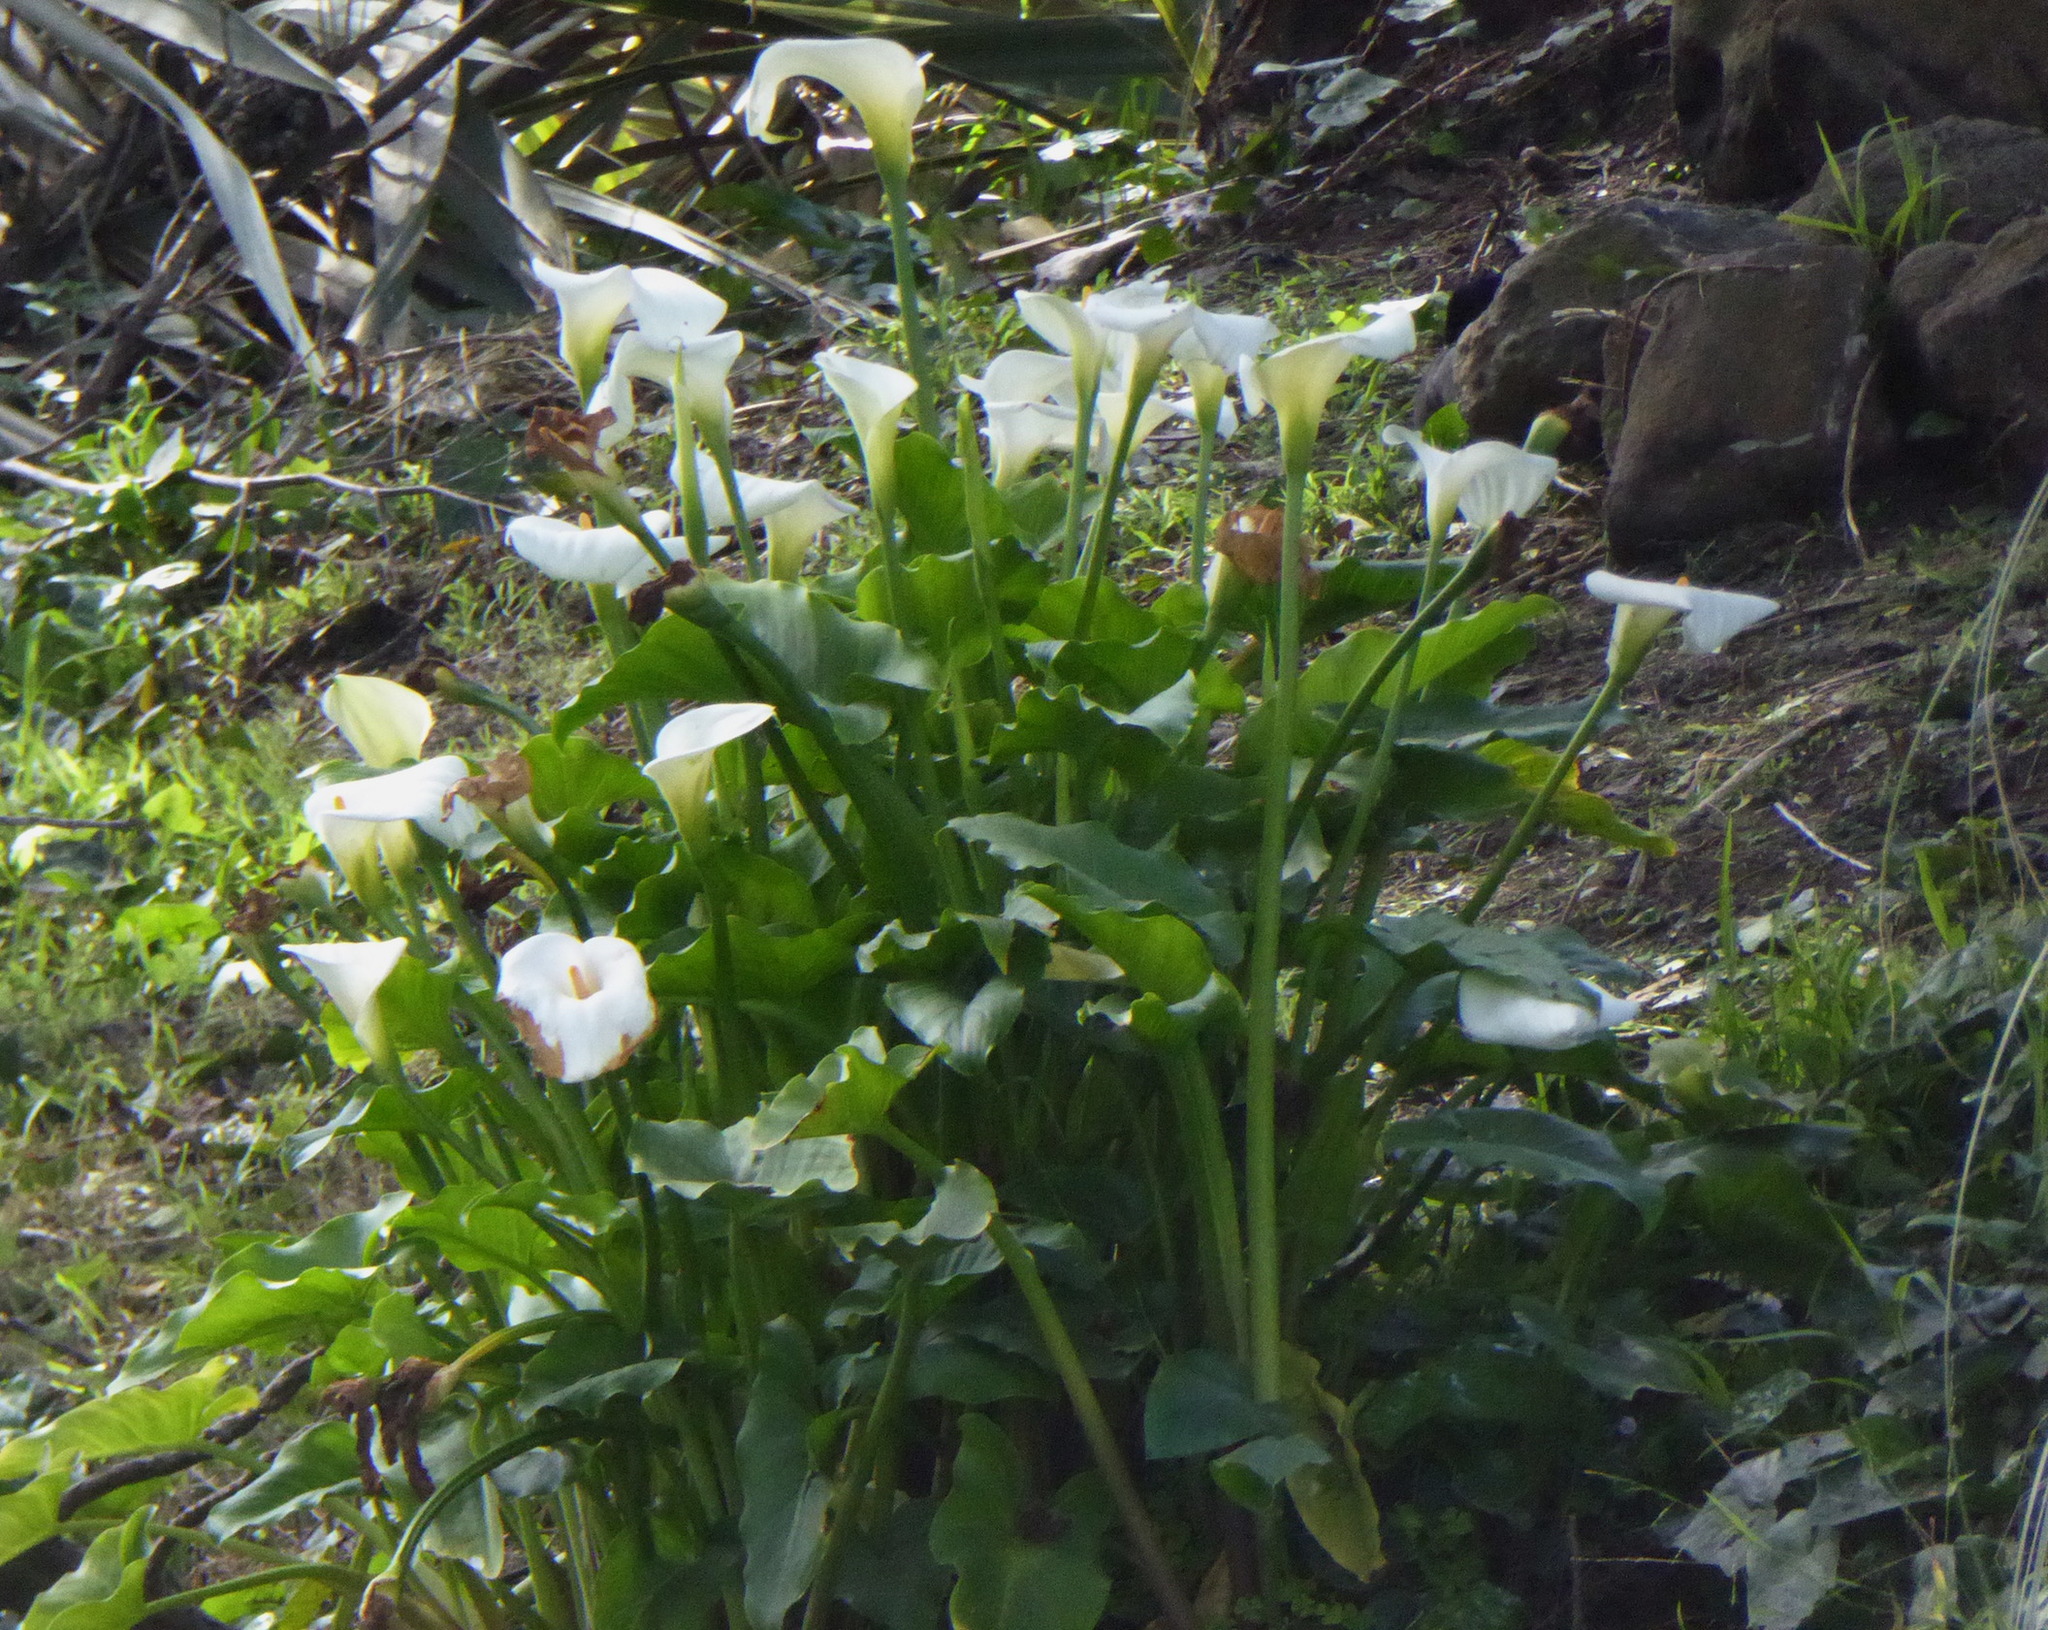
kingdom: Plantae
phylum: Tracheophyta
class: Liliopsida
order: Alismatales
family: Araceae
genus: Zantedeschia
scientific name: Zantedeschia aethiopica
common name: Altar-lily
